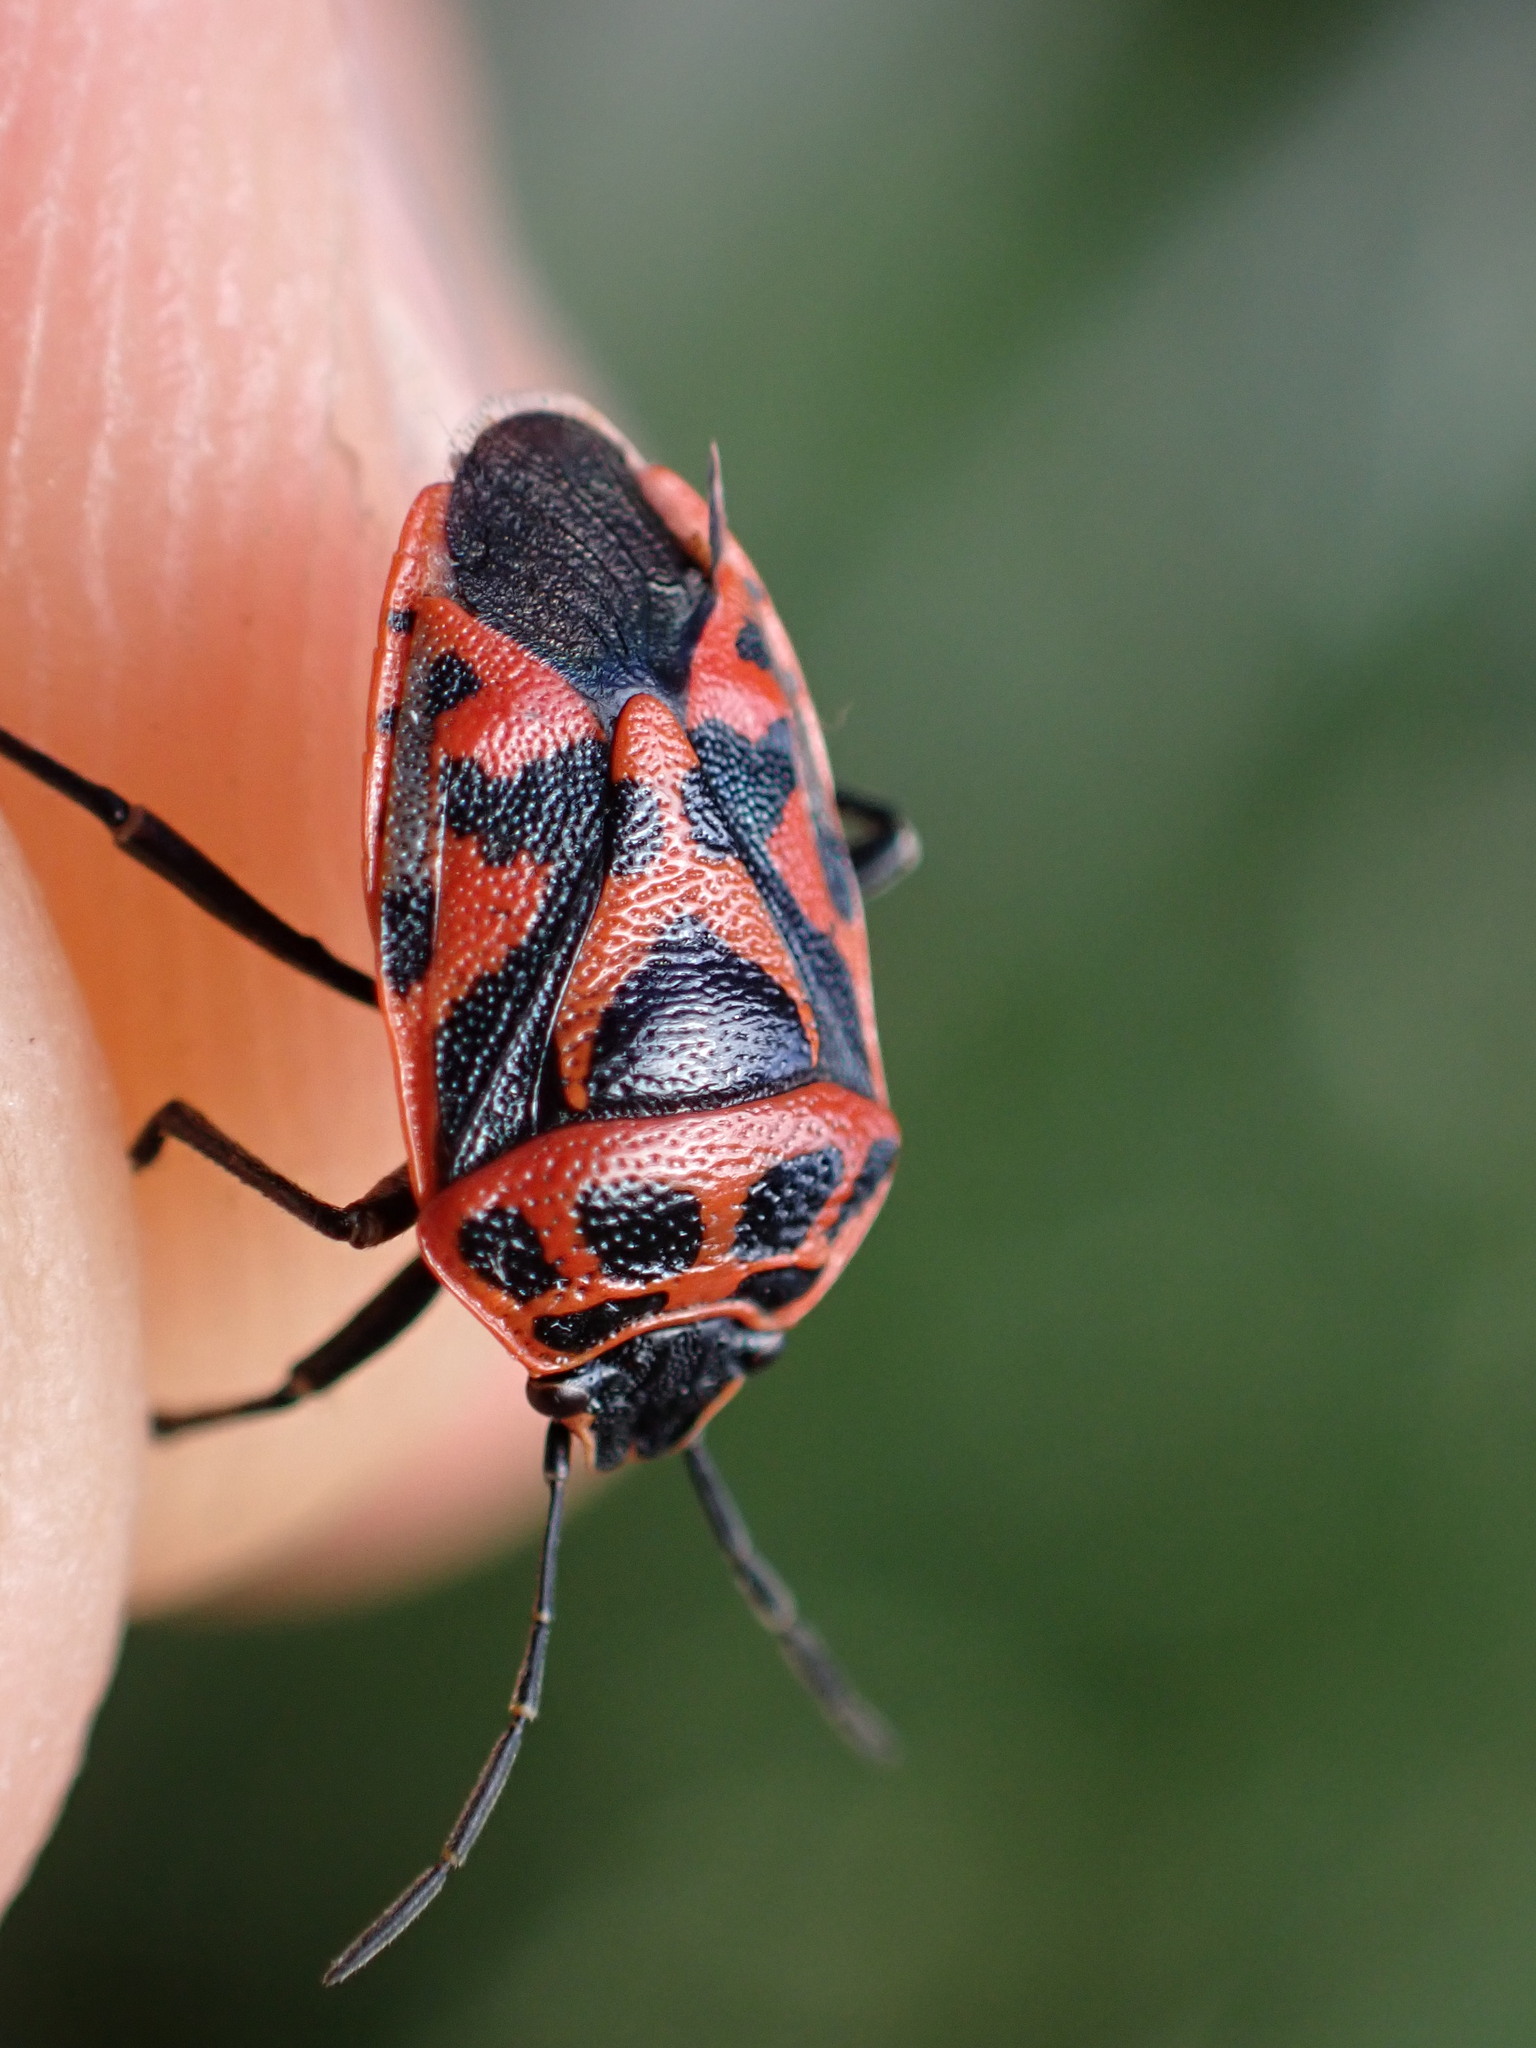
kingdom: Animalia
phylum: Arthropoda
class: Insecta
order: Hemiptera
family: Pentatomidae
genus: Eurydema
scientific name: Eurydema ornata
